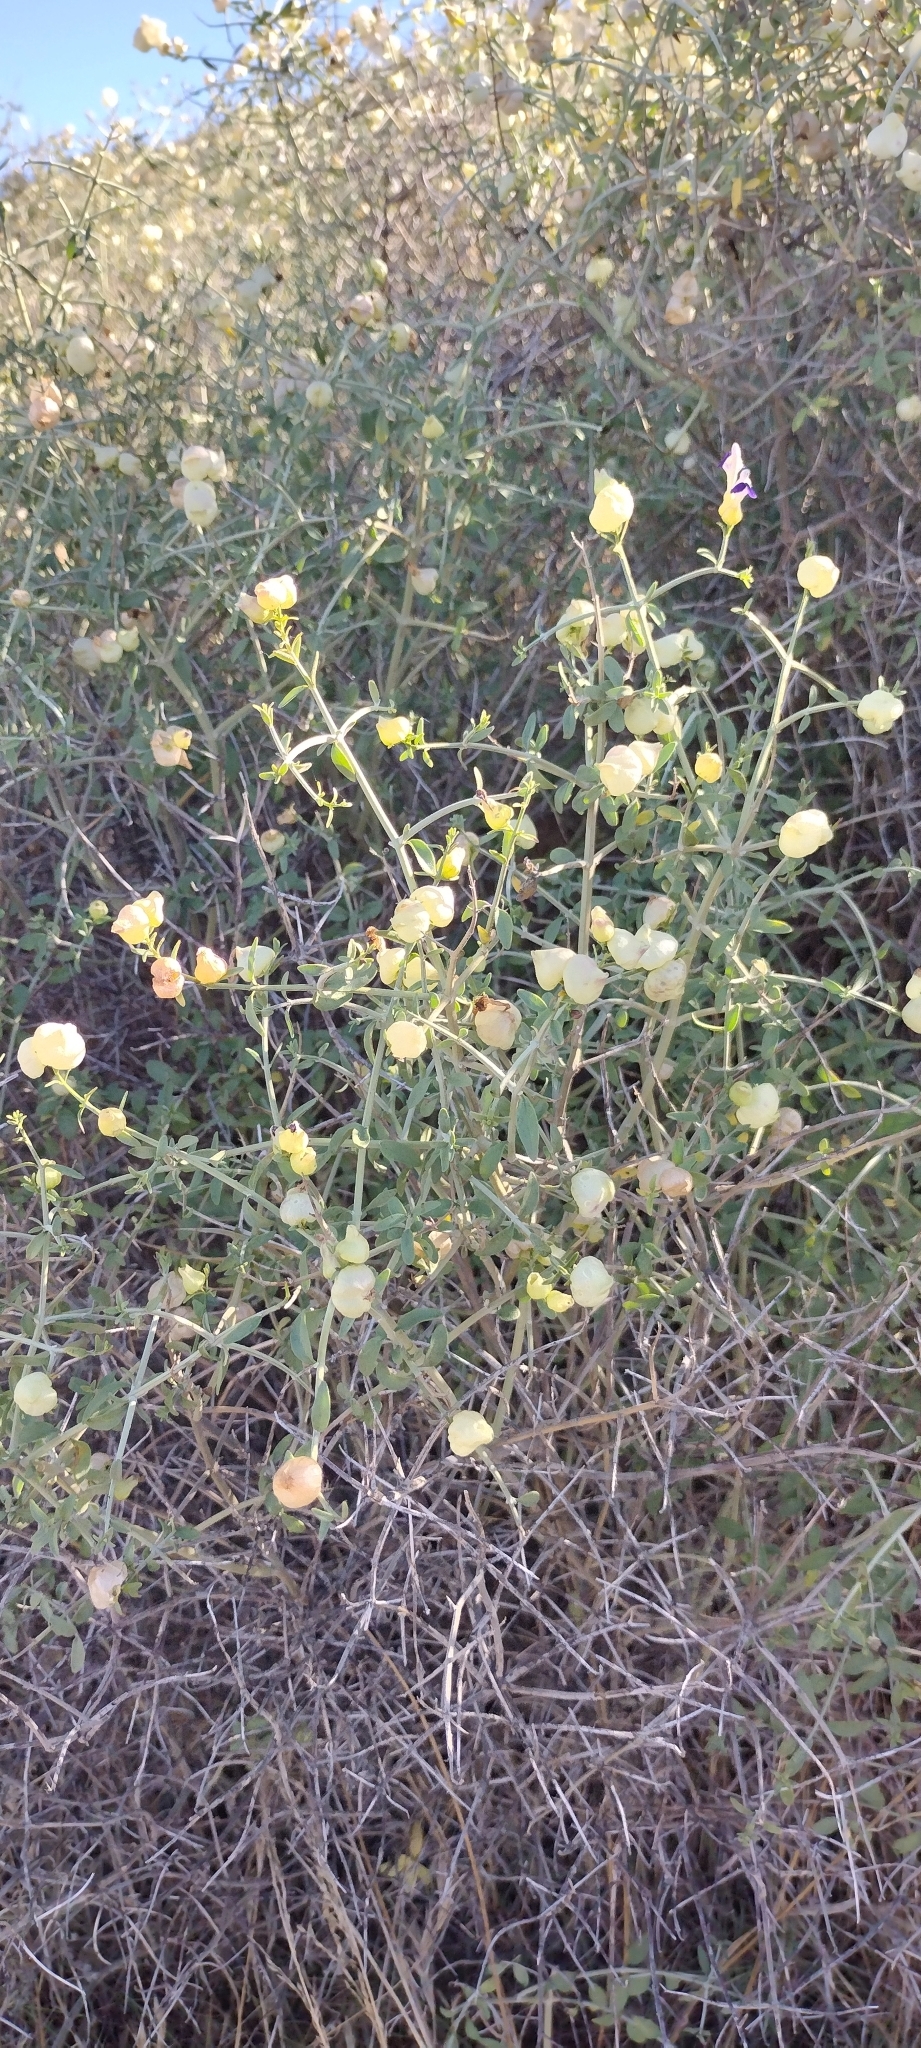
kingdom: Plantae
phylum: Tracheophyta
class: Magnoliopsida
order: Lamiales
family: Lamiaceae
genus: Scutellaria
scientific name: Scutellaria mexicana
